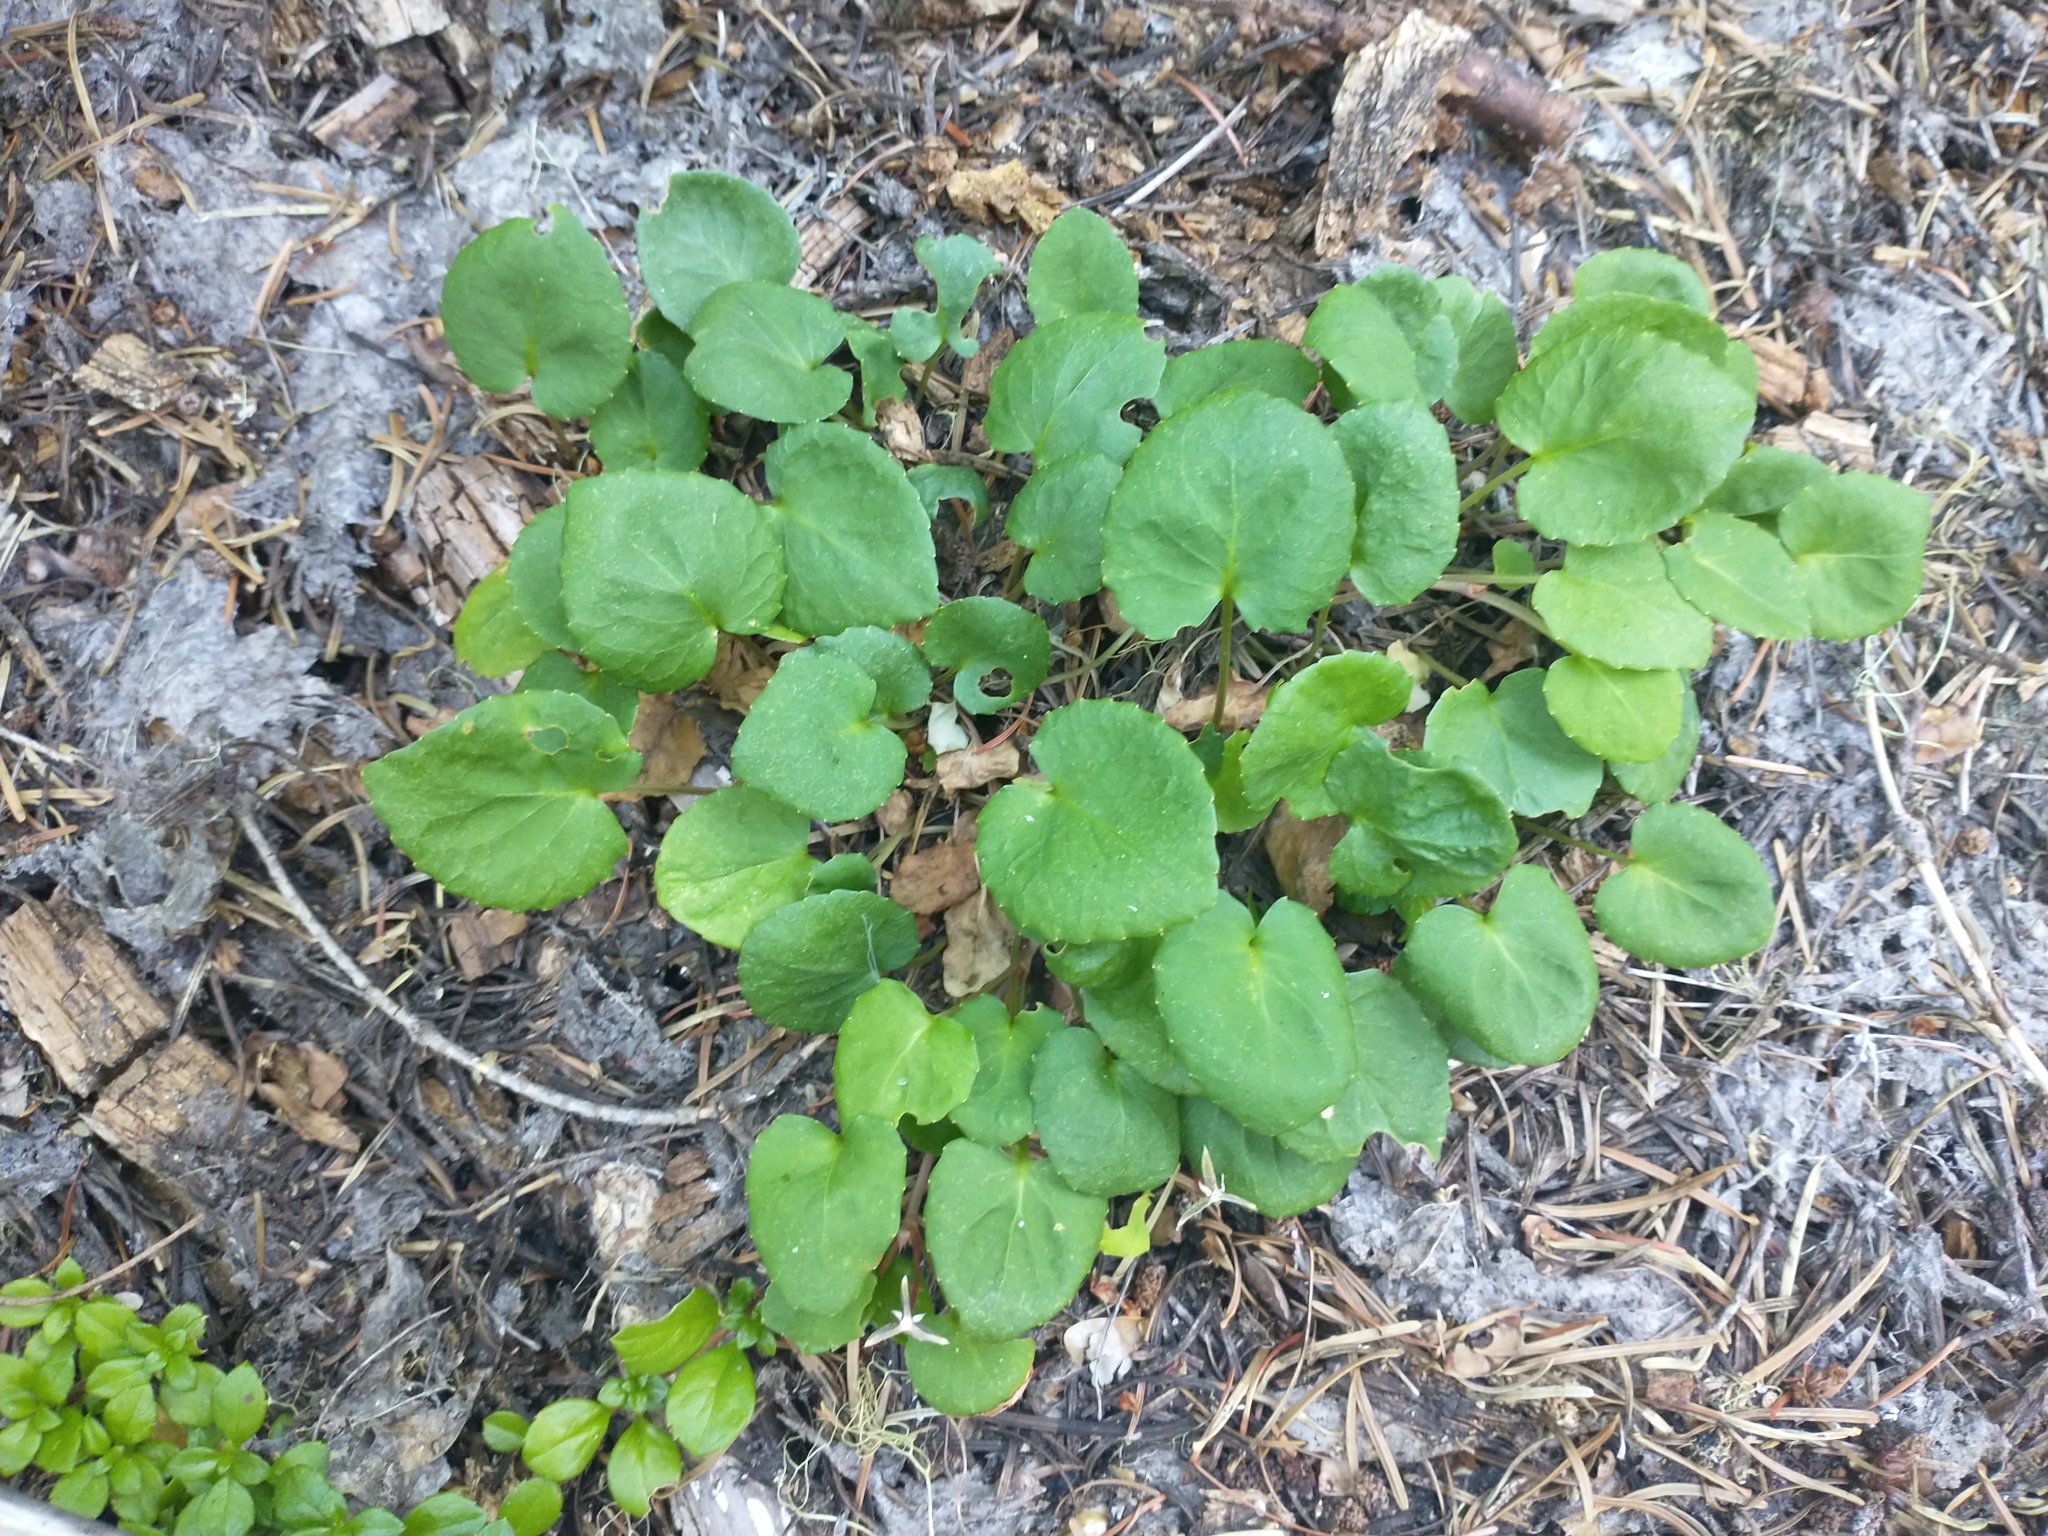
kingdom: Plantae
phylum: Tracheophyta
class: Magnoliopsida
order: Malpighiales
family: Violaceae
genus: Viola
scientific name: Viola sempervirens
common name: Evergreen violet
